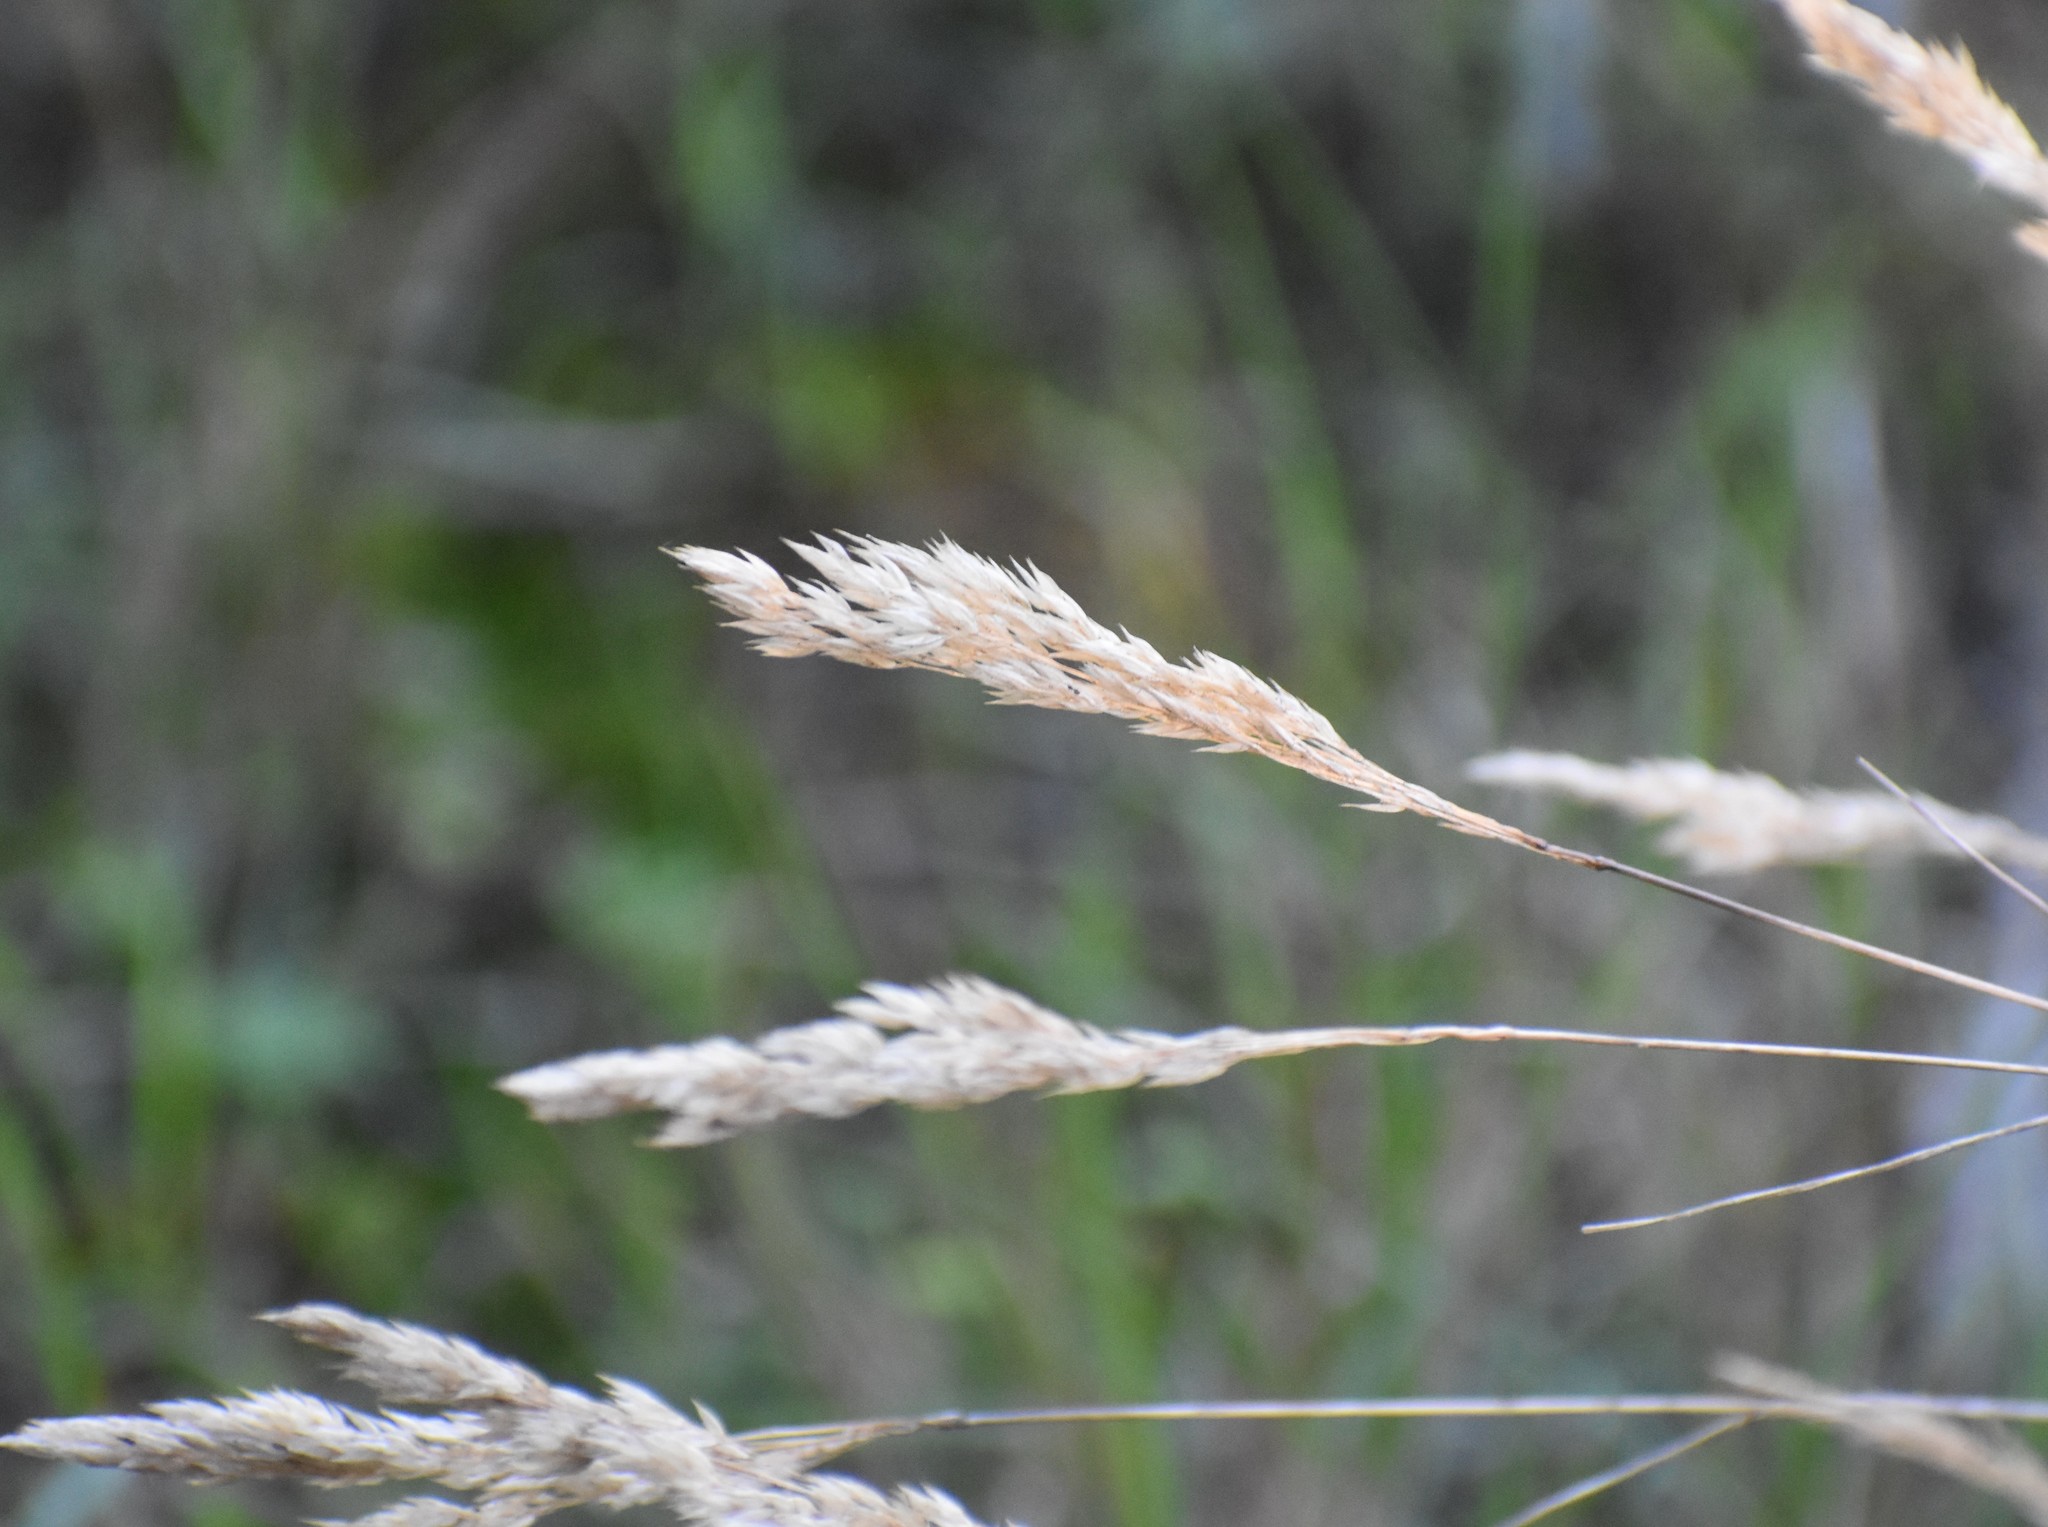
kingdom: Plantae
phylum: Tracheophyta
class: Liliopsida
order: Poales
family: Poaceae
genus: Cenchrus
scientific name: Cenchrus ciliaris
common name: Buffelgrass
